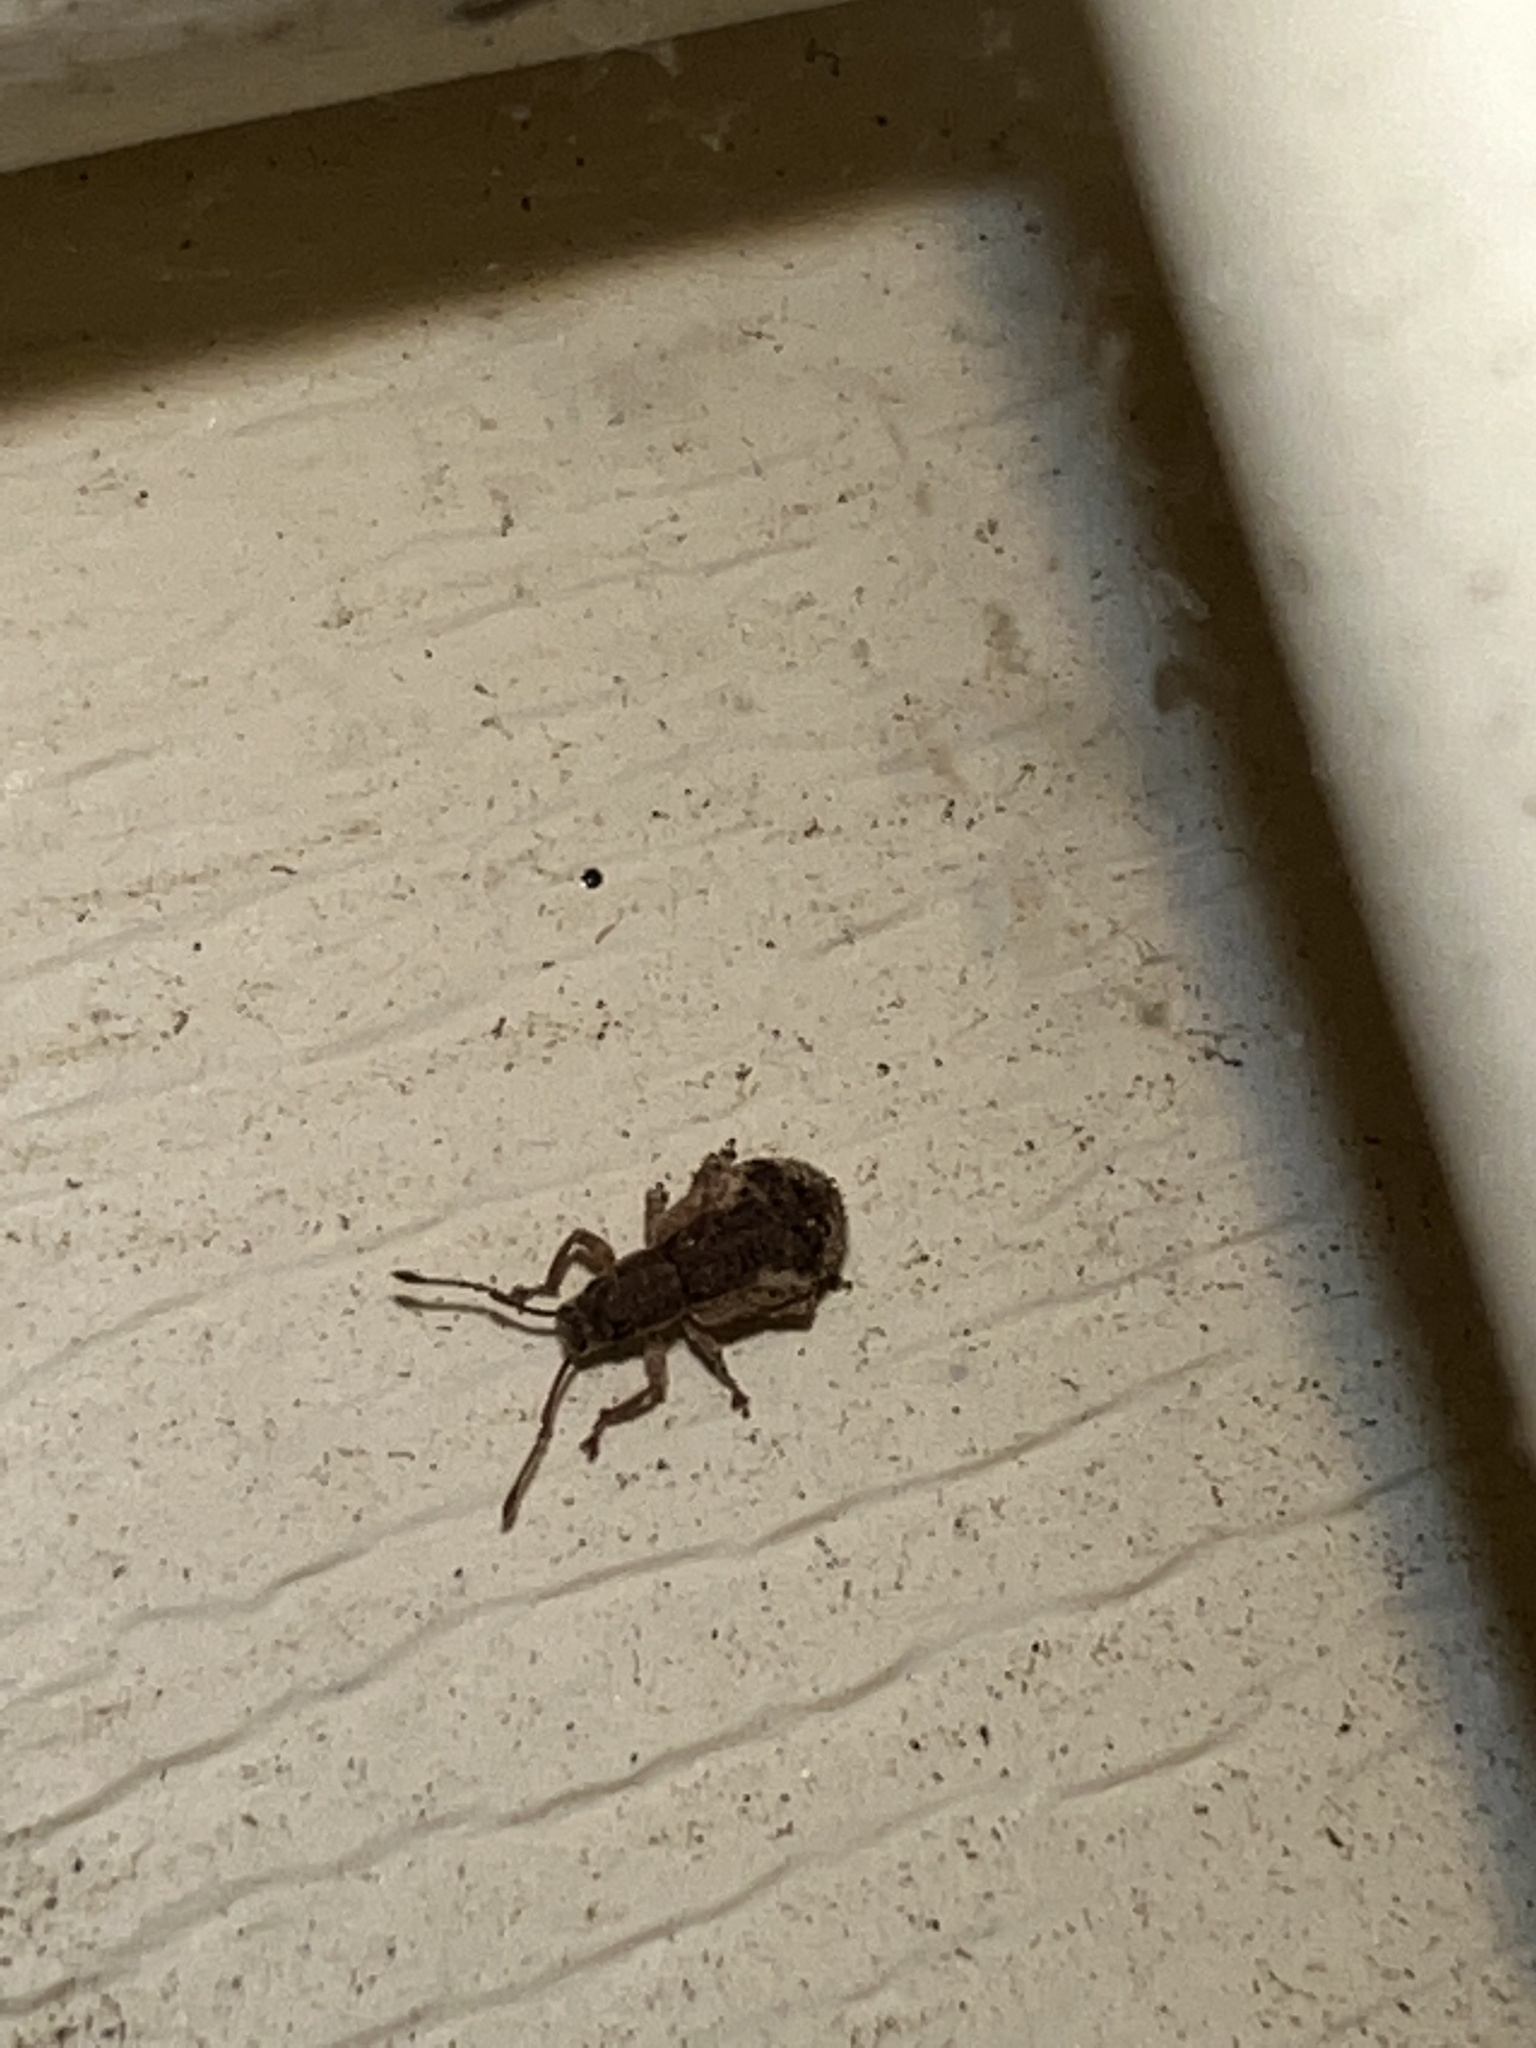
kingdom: Animalia
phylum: Arthropoda
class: Insecta
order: Coleoptera
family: Curculionidae
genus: Pseudoedophrys
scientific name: Pseudoedophrys hilleri
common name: Weevil
